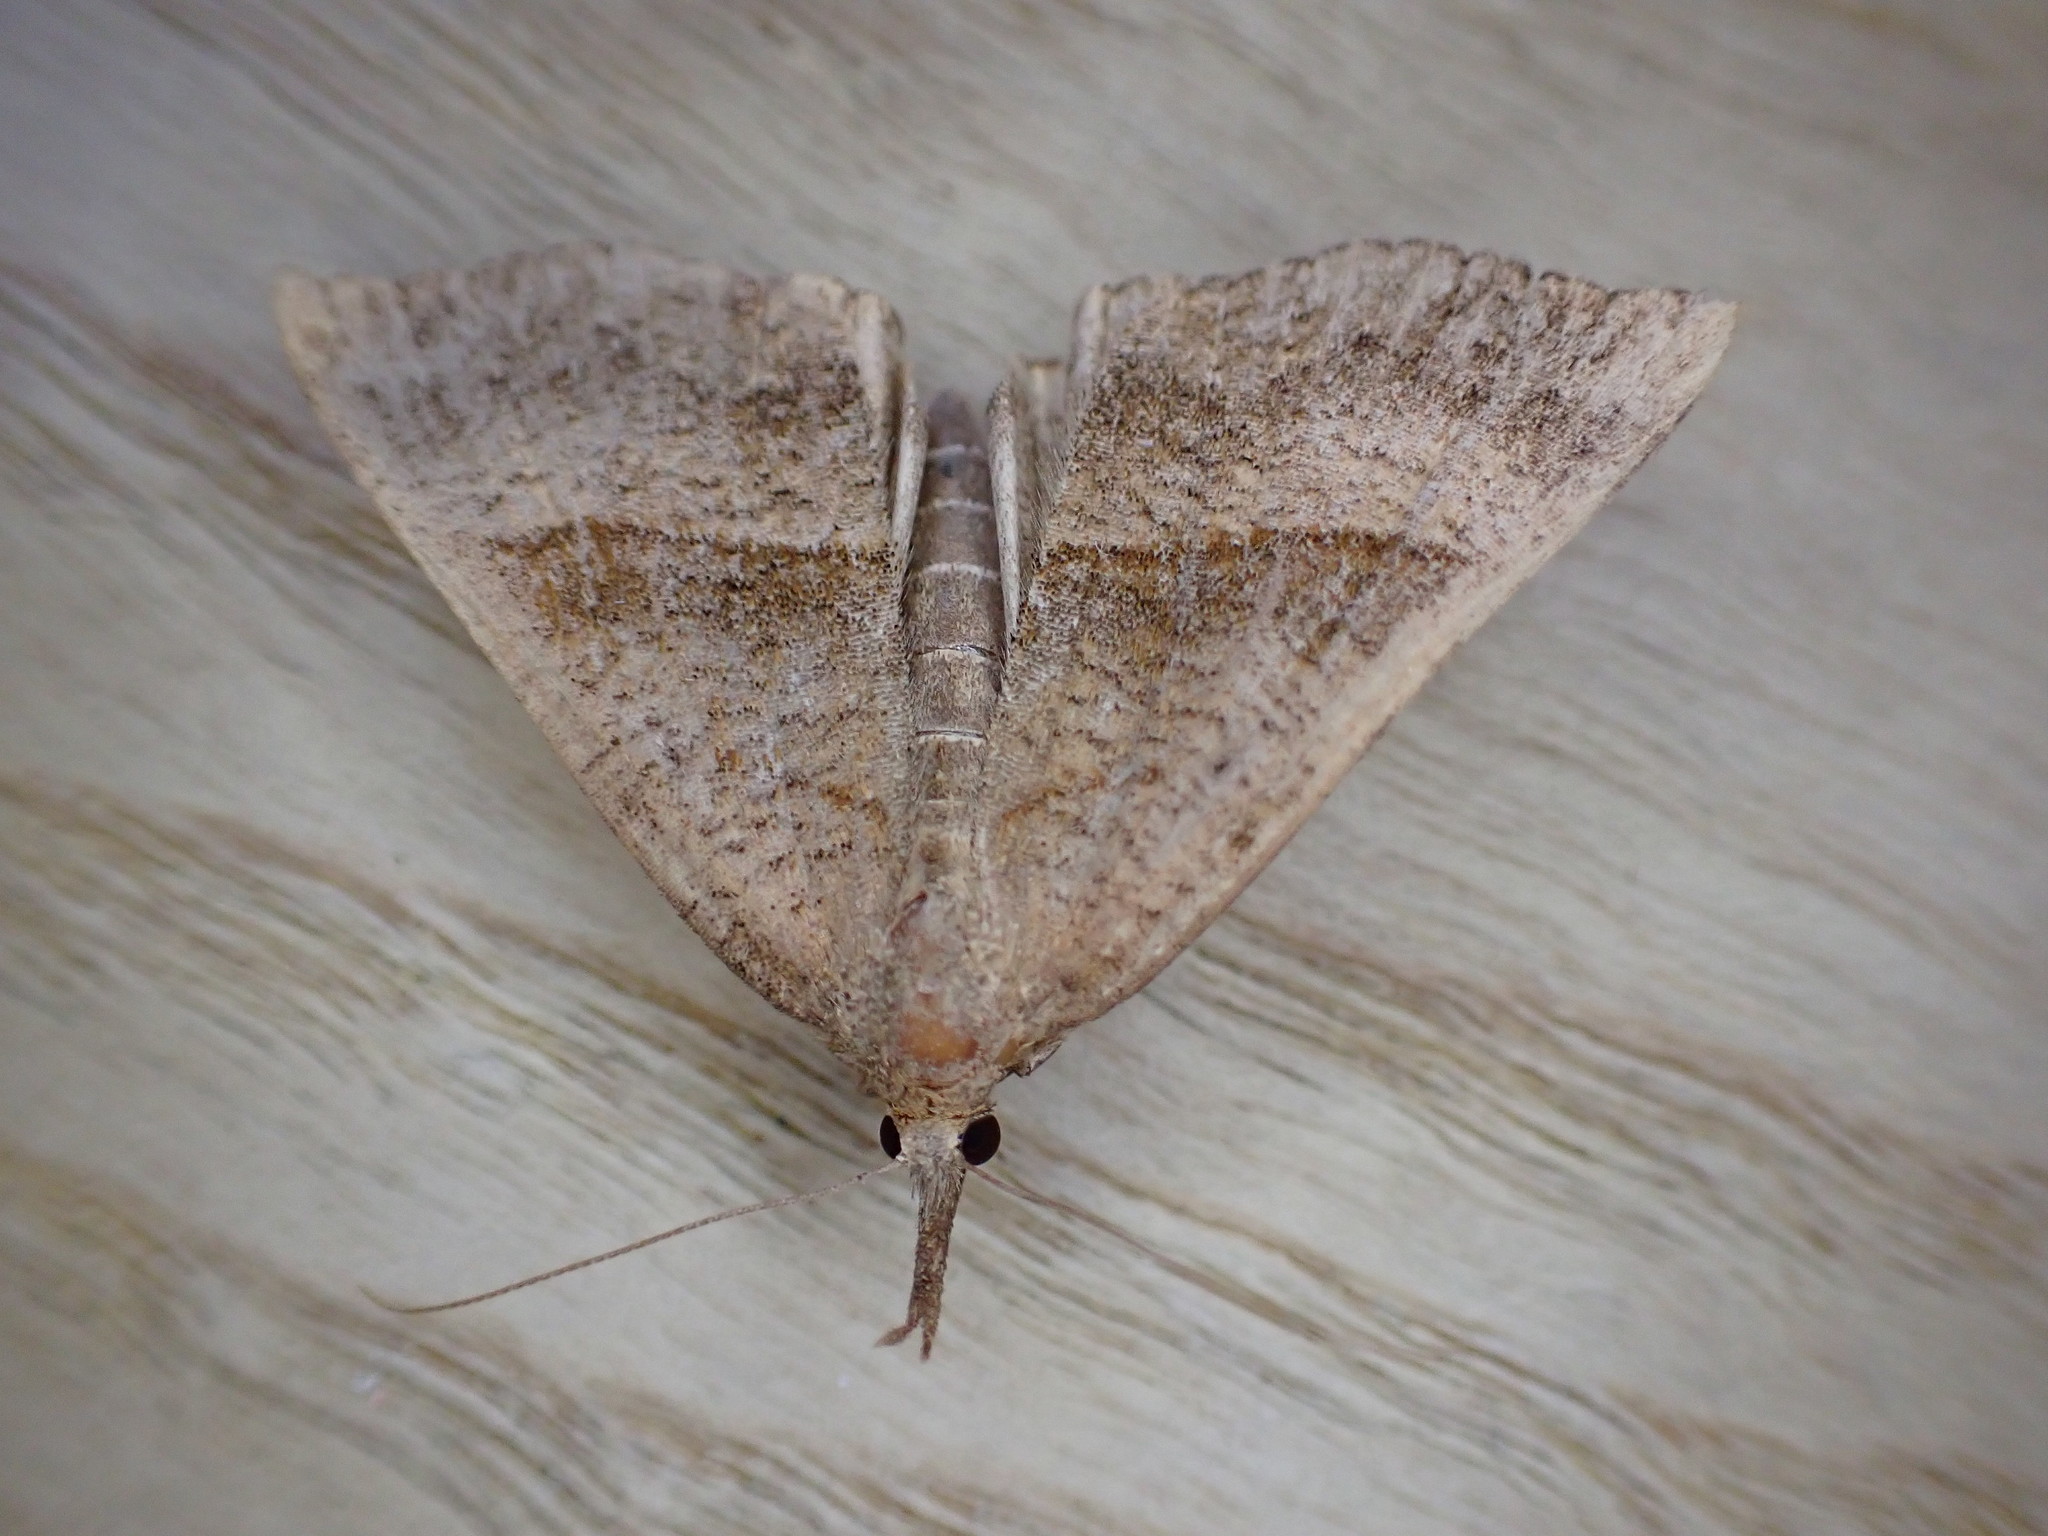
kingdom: Animalia
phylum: Arthropoda
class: Insecta
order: Lepidoptera
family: Erebidae
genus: Hypena
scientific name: Hypena proboscidalis
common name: Snout
